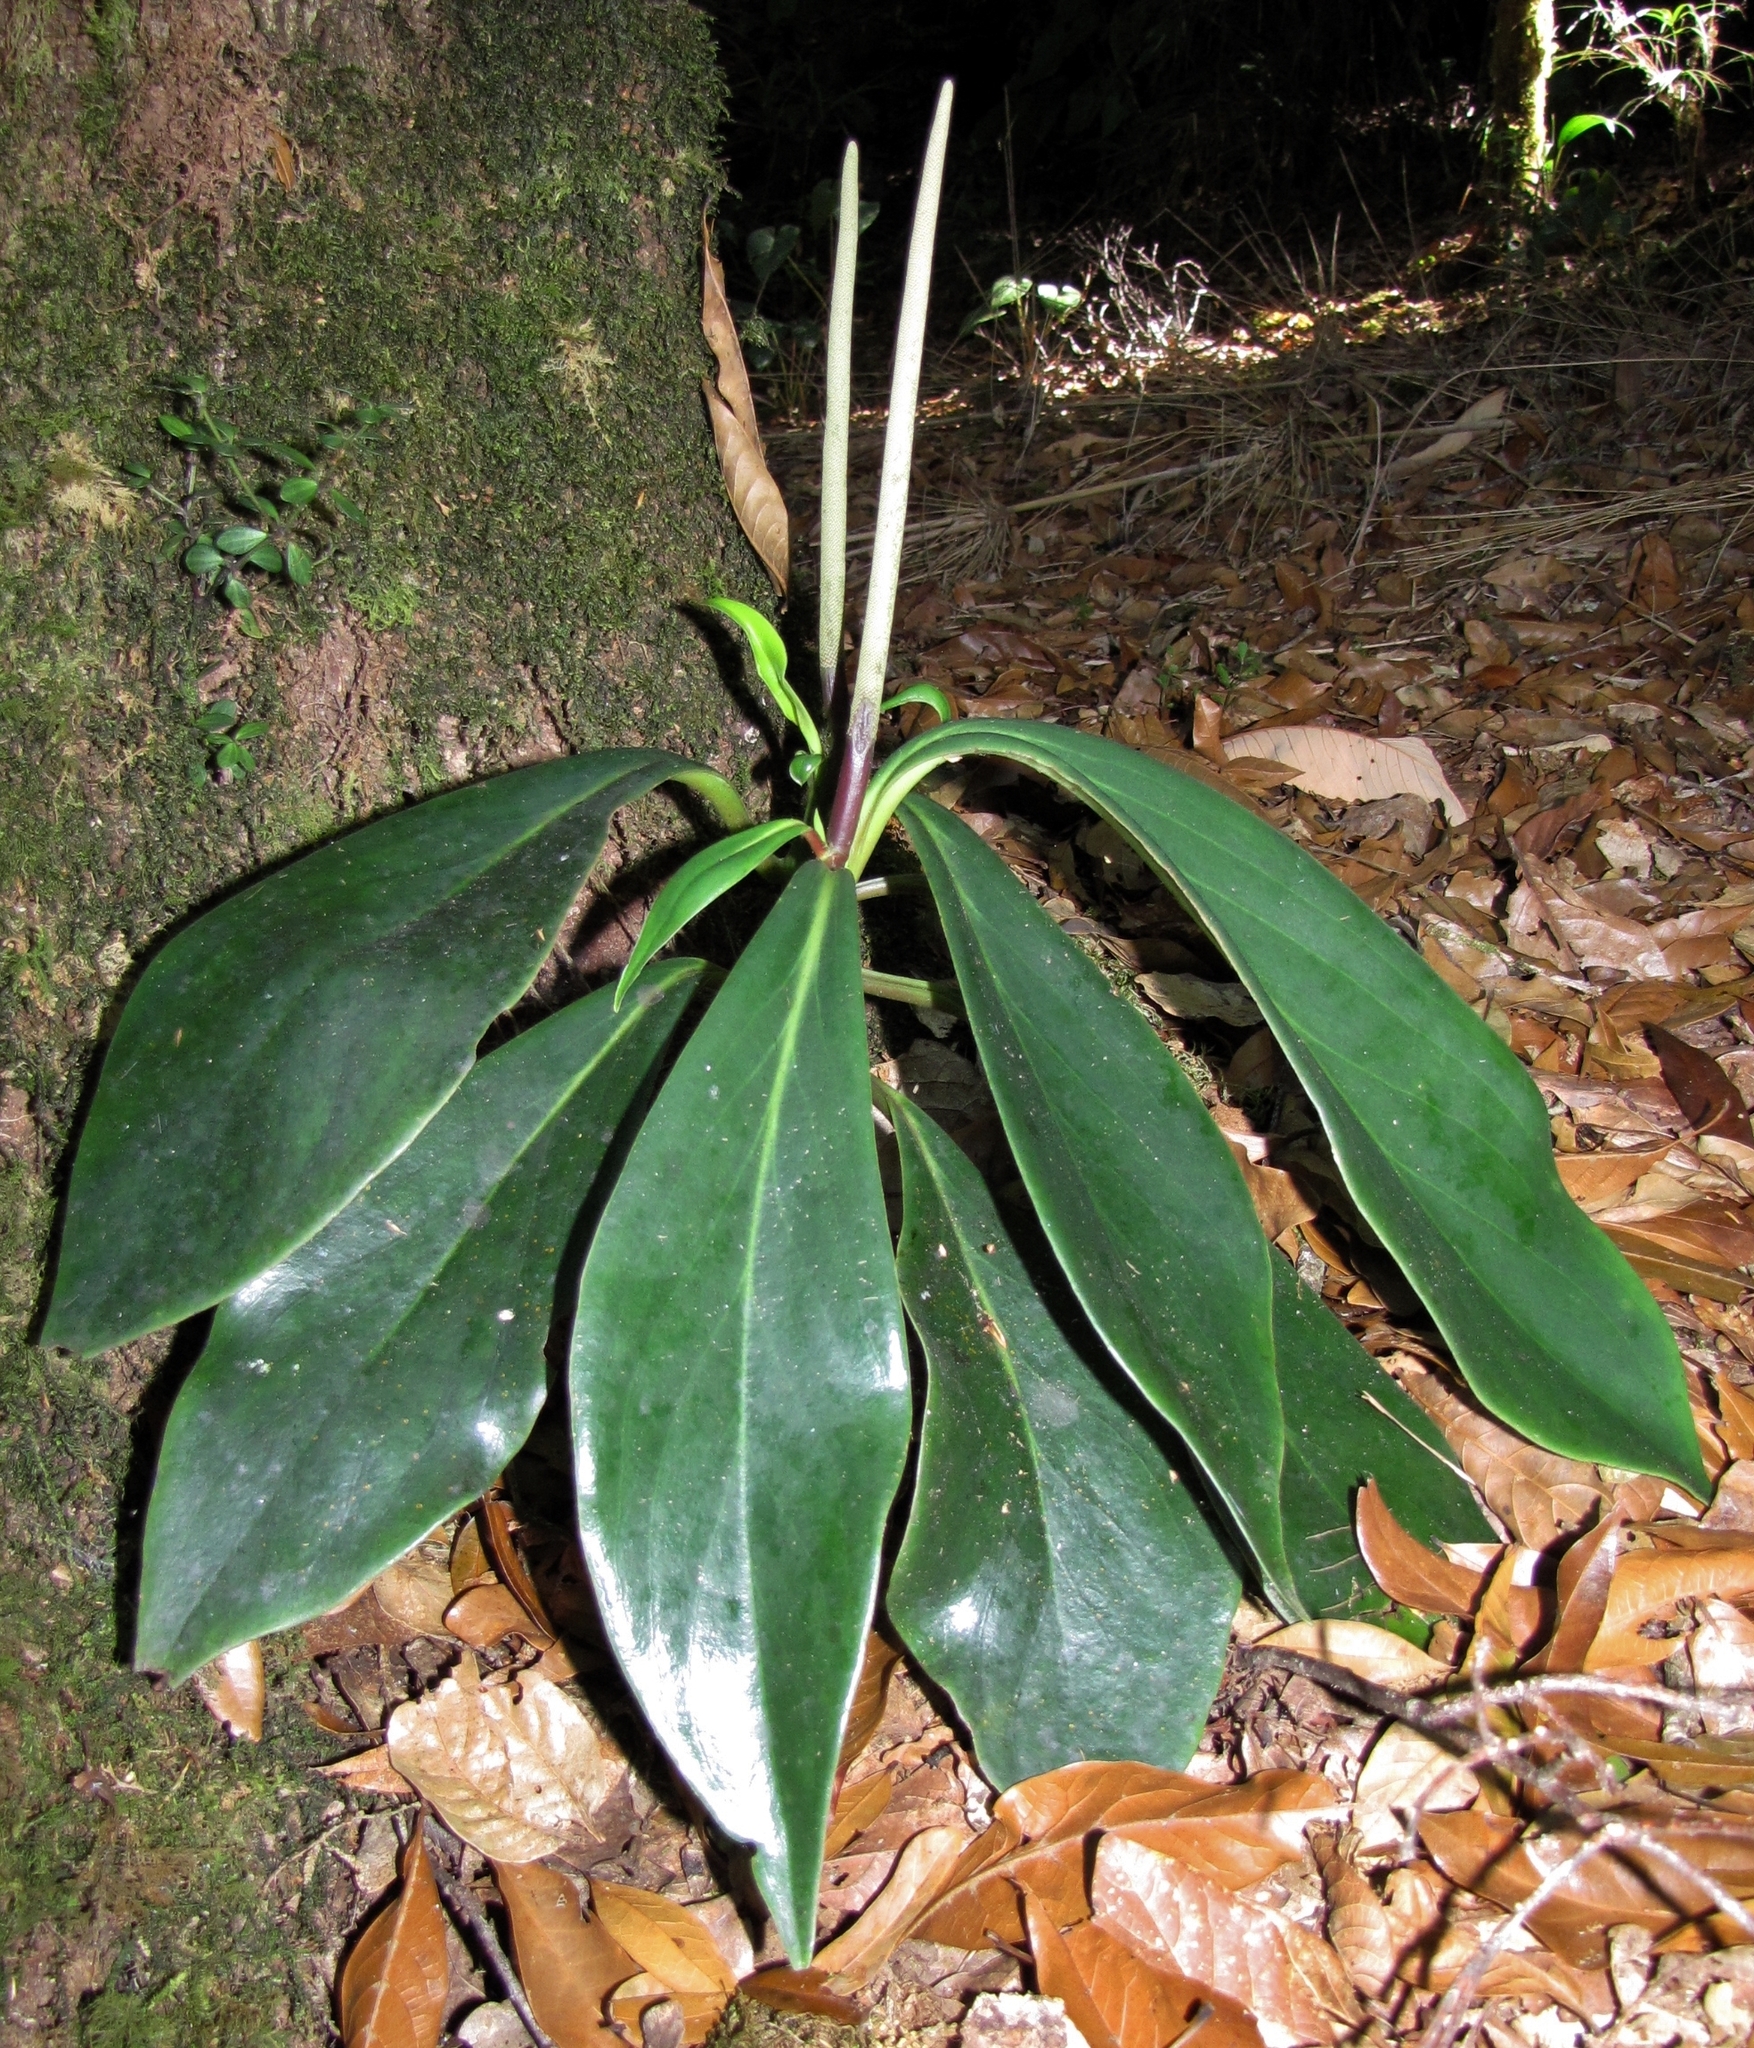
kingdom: Plantae
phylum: Tracheophyta
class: Magnoliopsida
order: Piperales
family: Piperaceae
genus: Peperomia
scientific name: Peperomia adscendens
